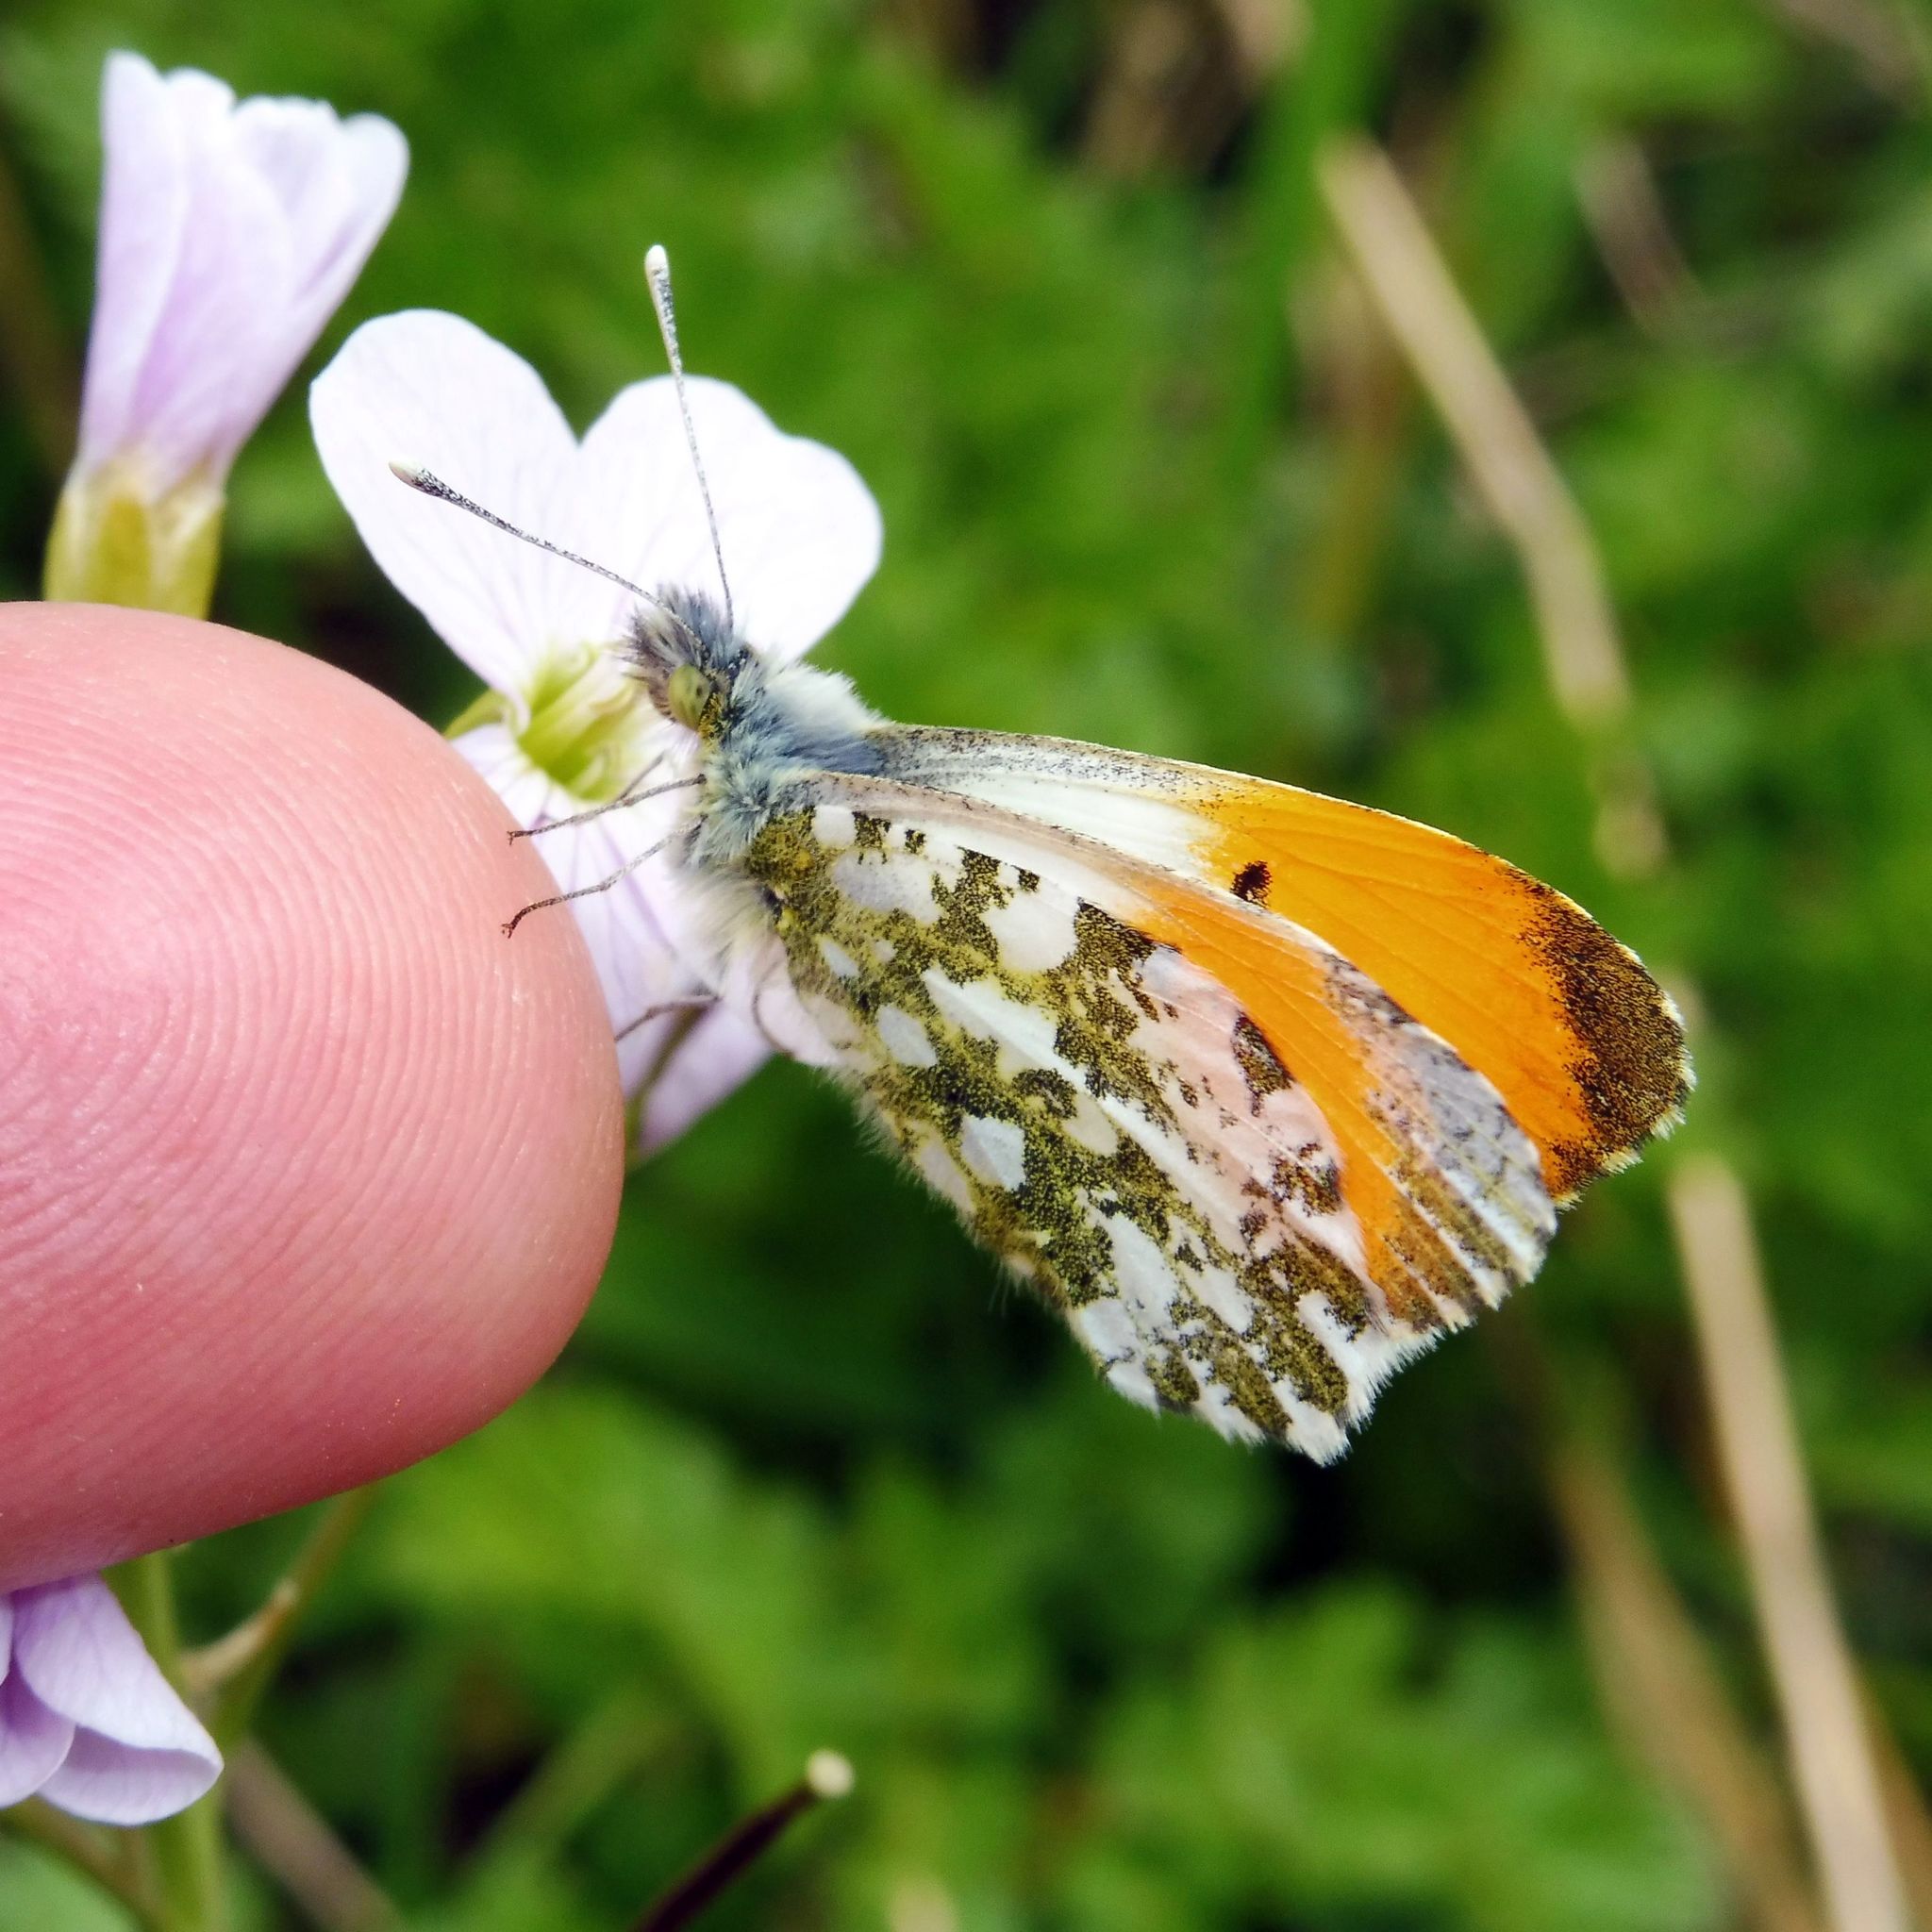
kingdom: Animalia
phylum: Arthropoda
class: Insecta
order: Lepidoptera
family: Pieridae
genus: Anthocharis
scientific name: Anthocharis cardamines
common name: Orange-tip
